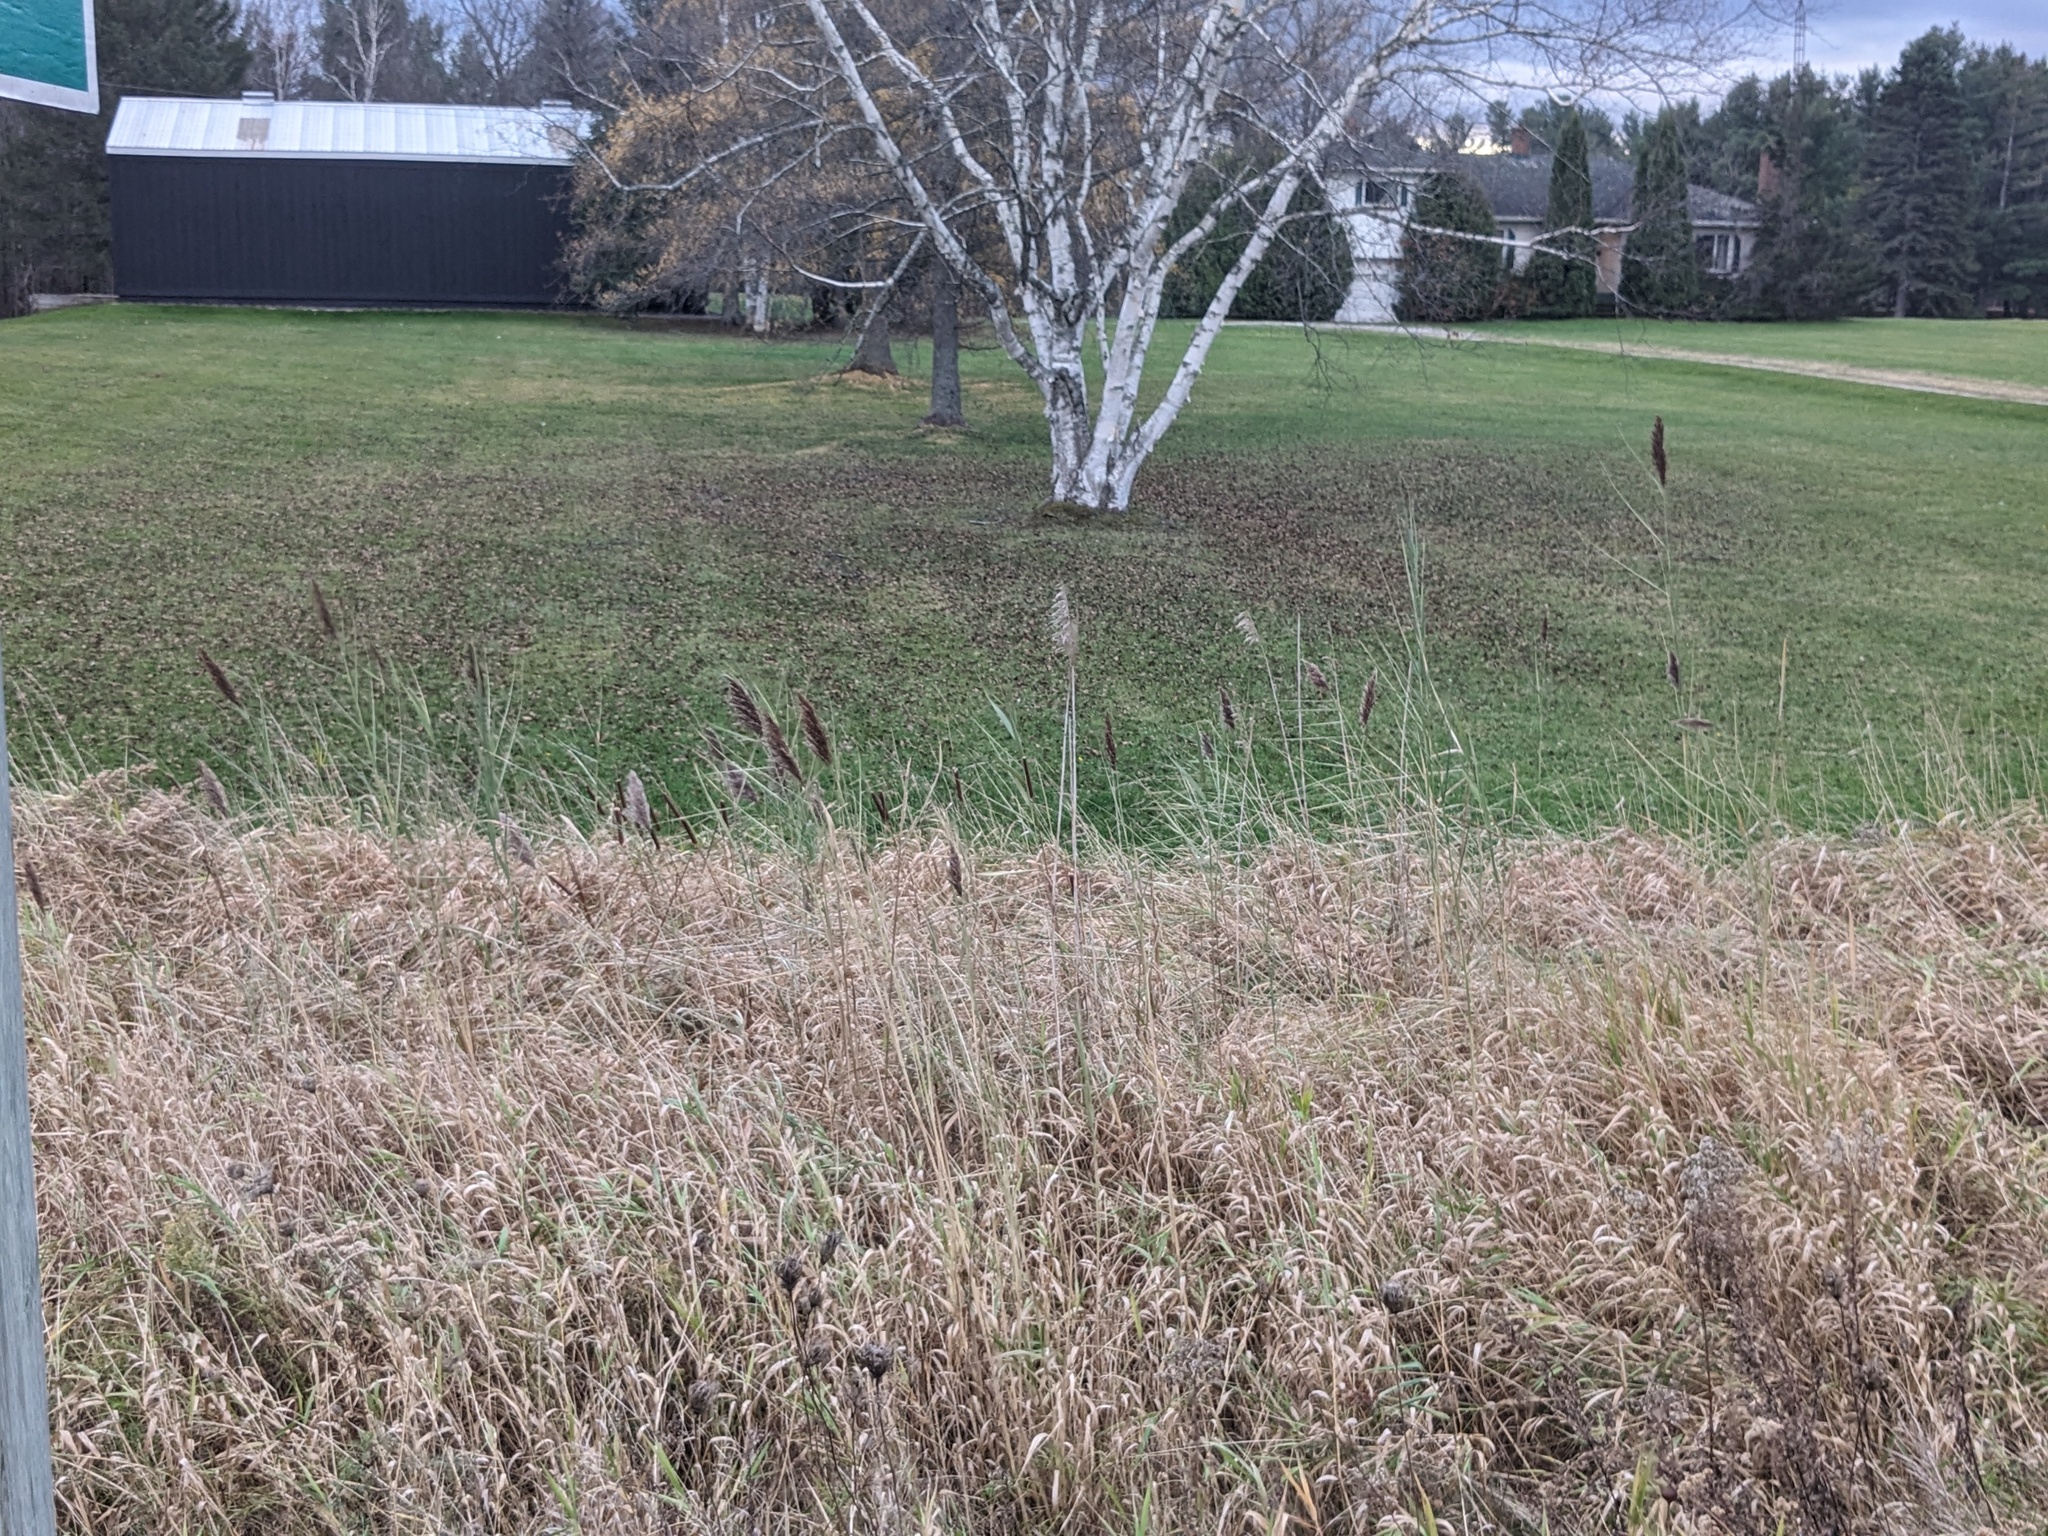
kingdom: Plantae
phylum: Tracheophyta
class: Liliopsida
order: Poales
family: Poaceae
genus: Phragmites
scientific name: Phragmites australis
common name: Common reed
